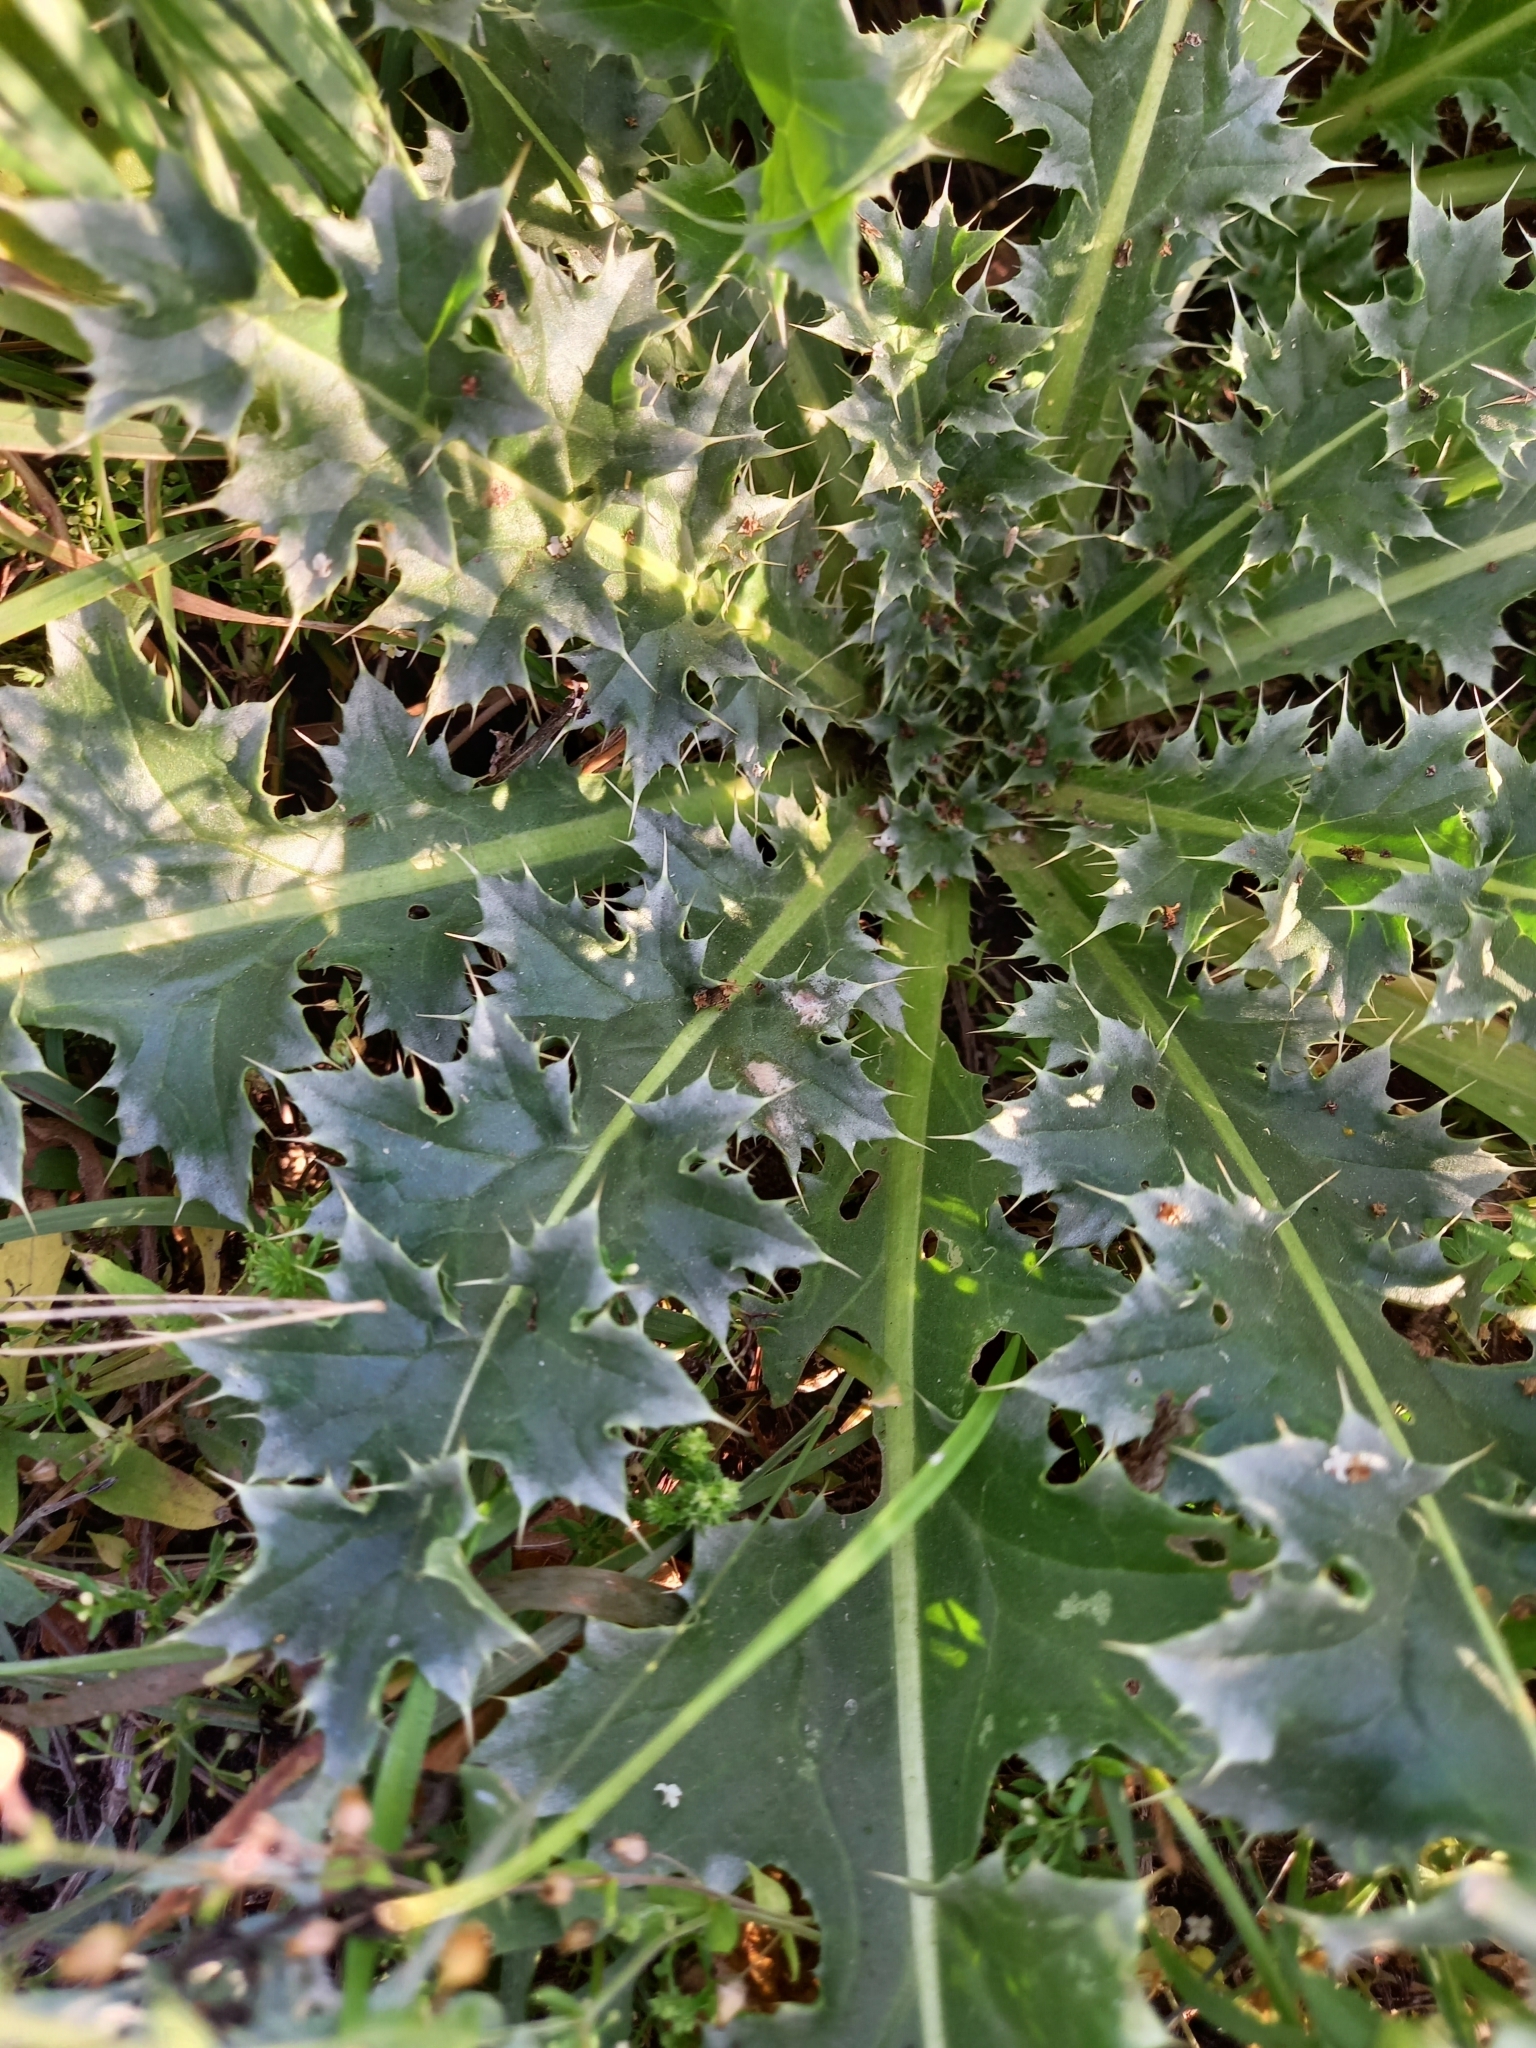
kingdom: Plantae
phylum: Tracheophyta
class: Magnoliopsida
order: Asterales
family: Asteraceae
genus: Carduus
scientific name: Carduus nutans
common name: Musk thistle
